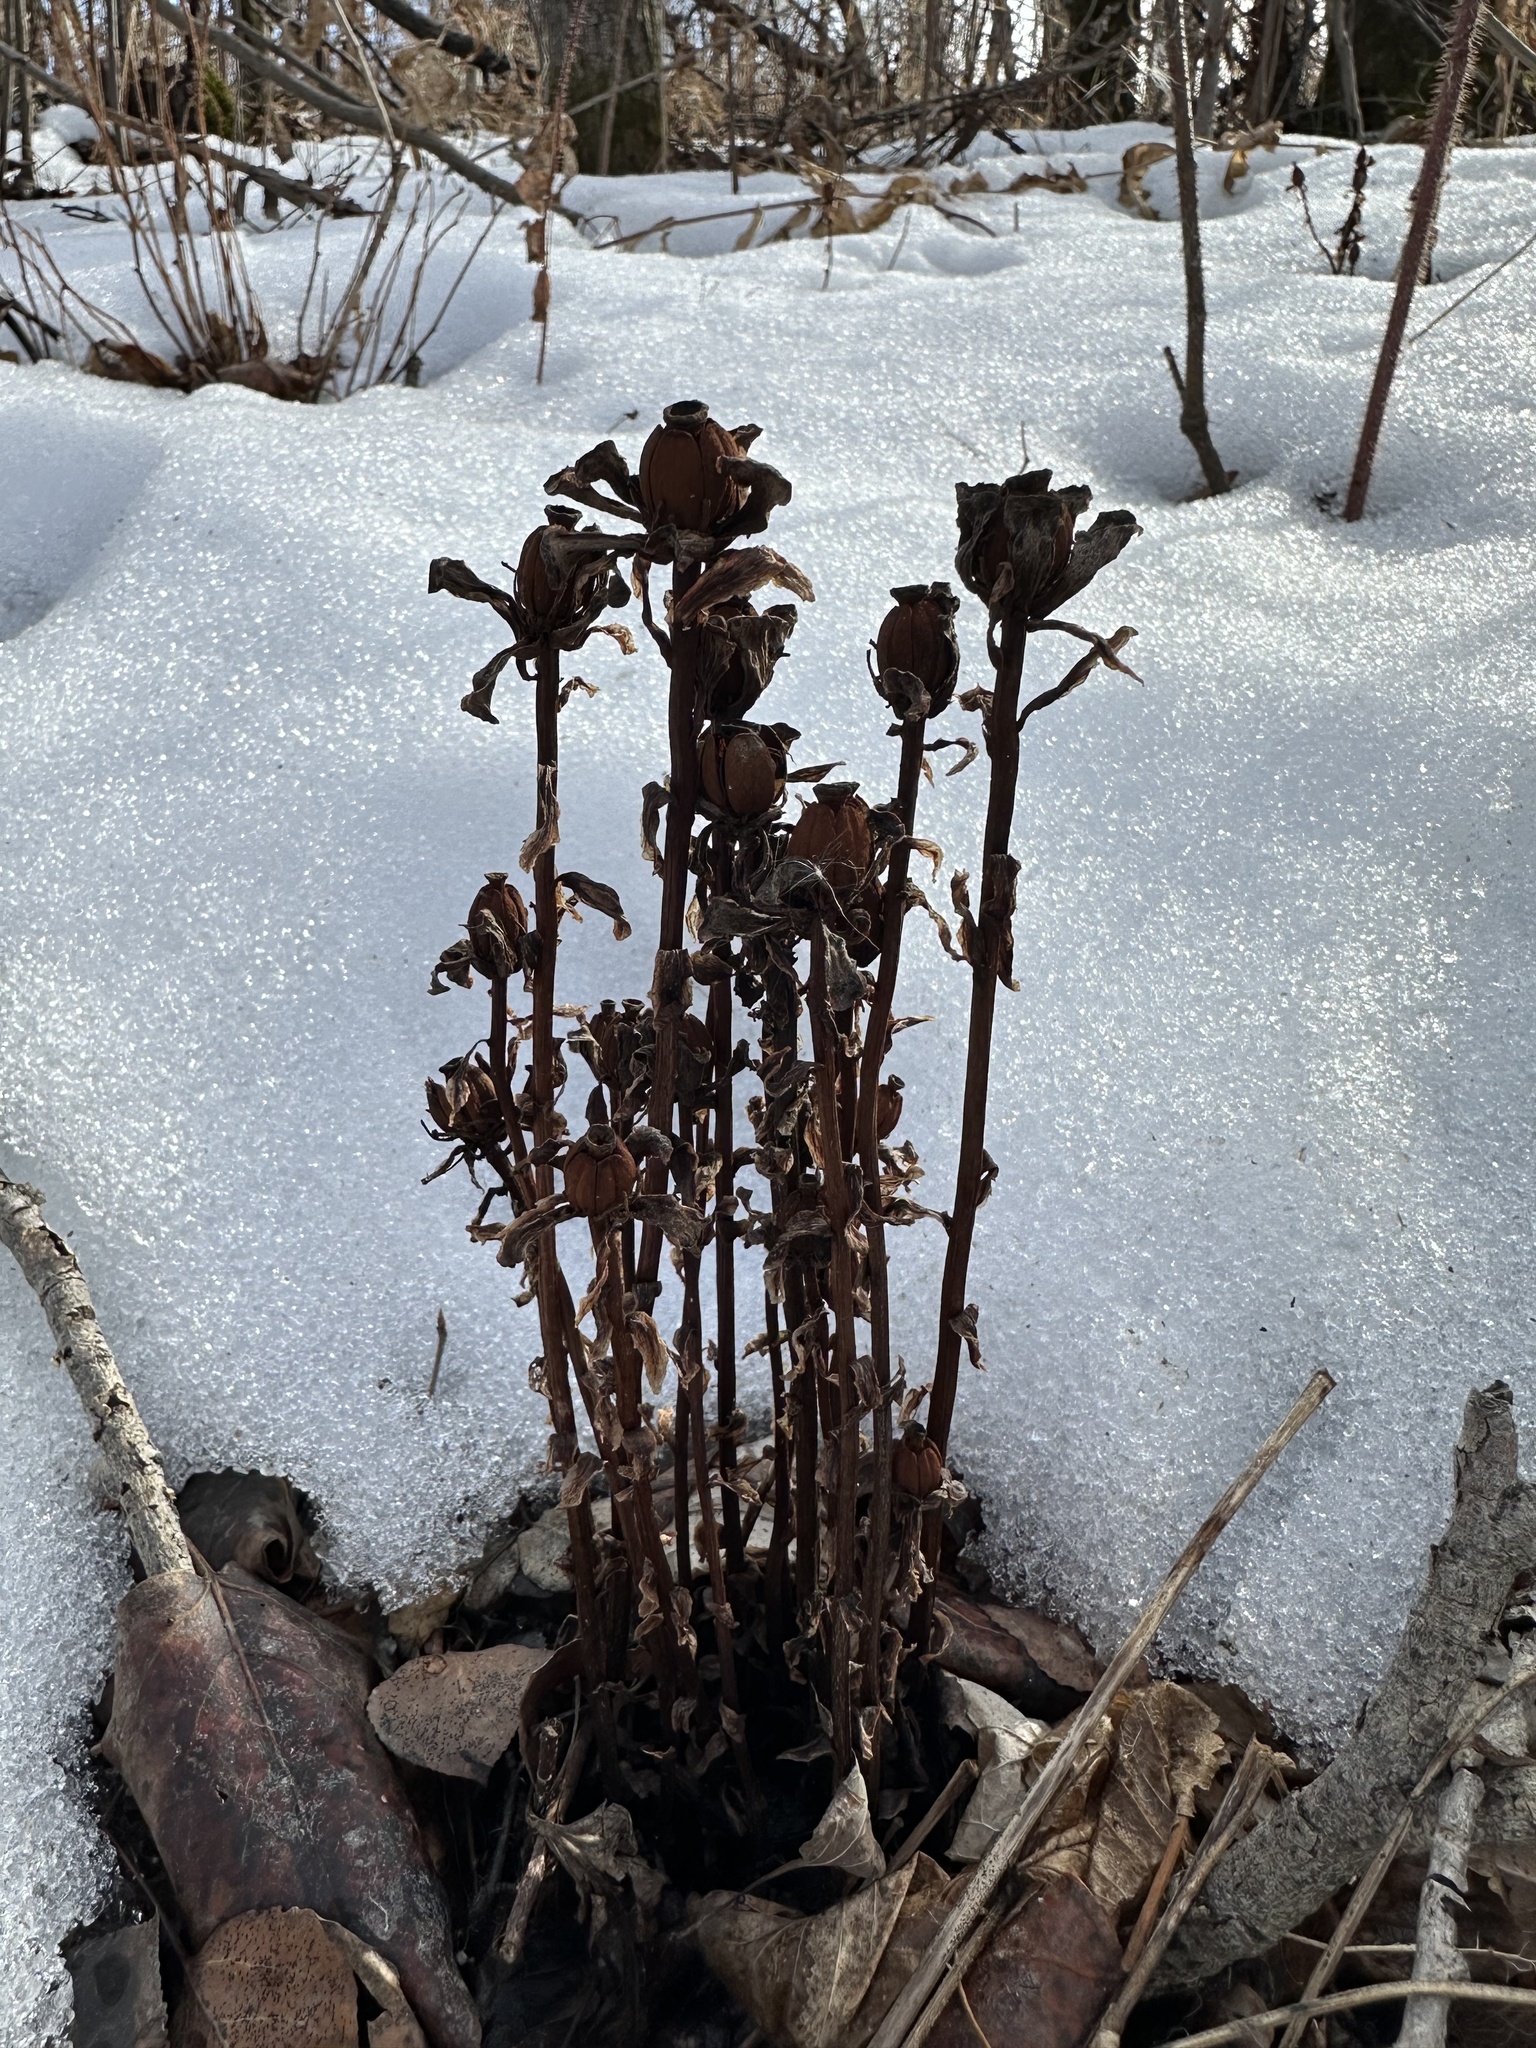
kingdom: Plantae
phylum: Tracheophyta
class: Magnoliopsida
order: Ericales
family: Ericaceae
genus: Monotropa
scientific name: Monotropa uniflora
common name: Convulsion root
